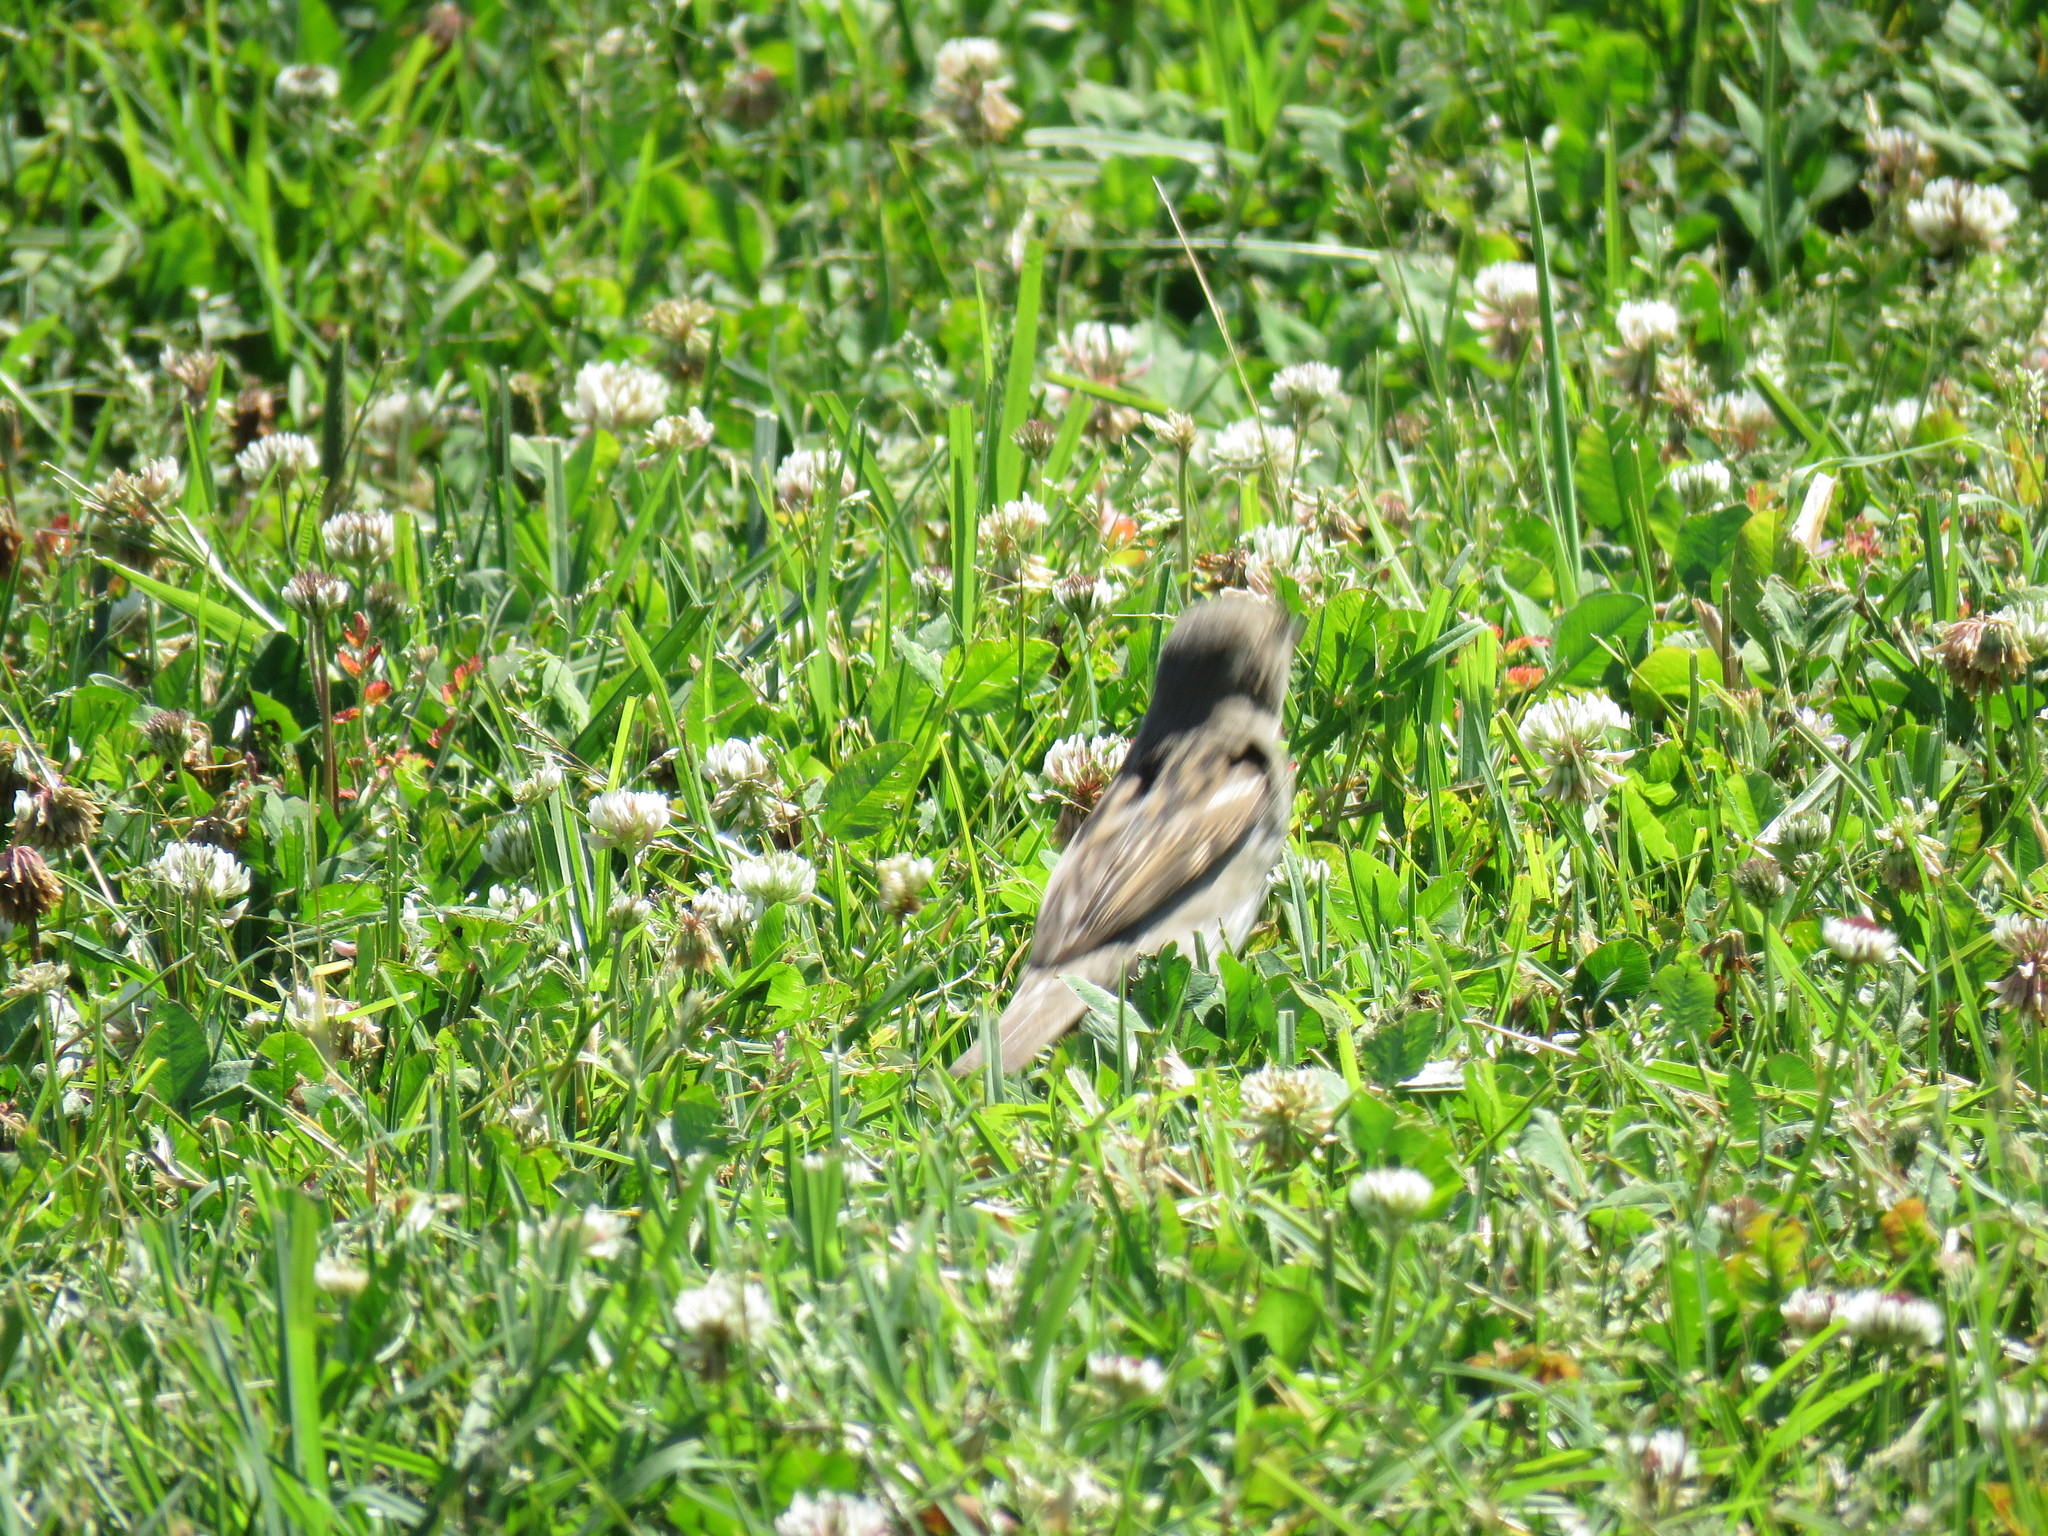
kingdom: Animalia
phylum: Chordata
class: Aves
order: Passeriformes
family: Passeridae
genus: Passer
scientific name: Passer domesticus
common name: House sparrow
